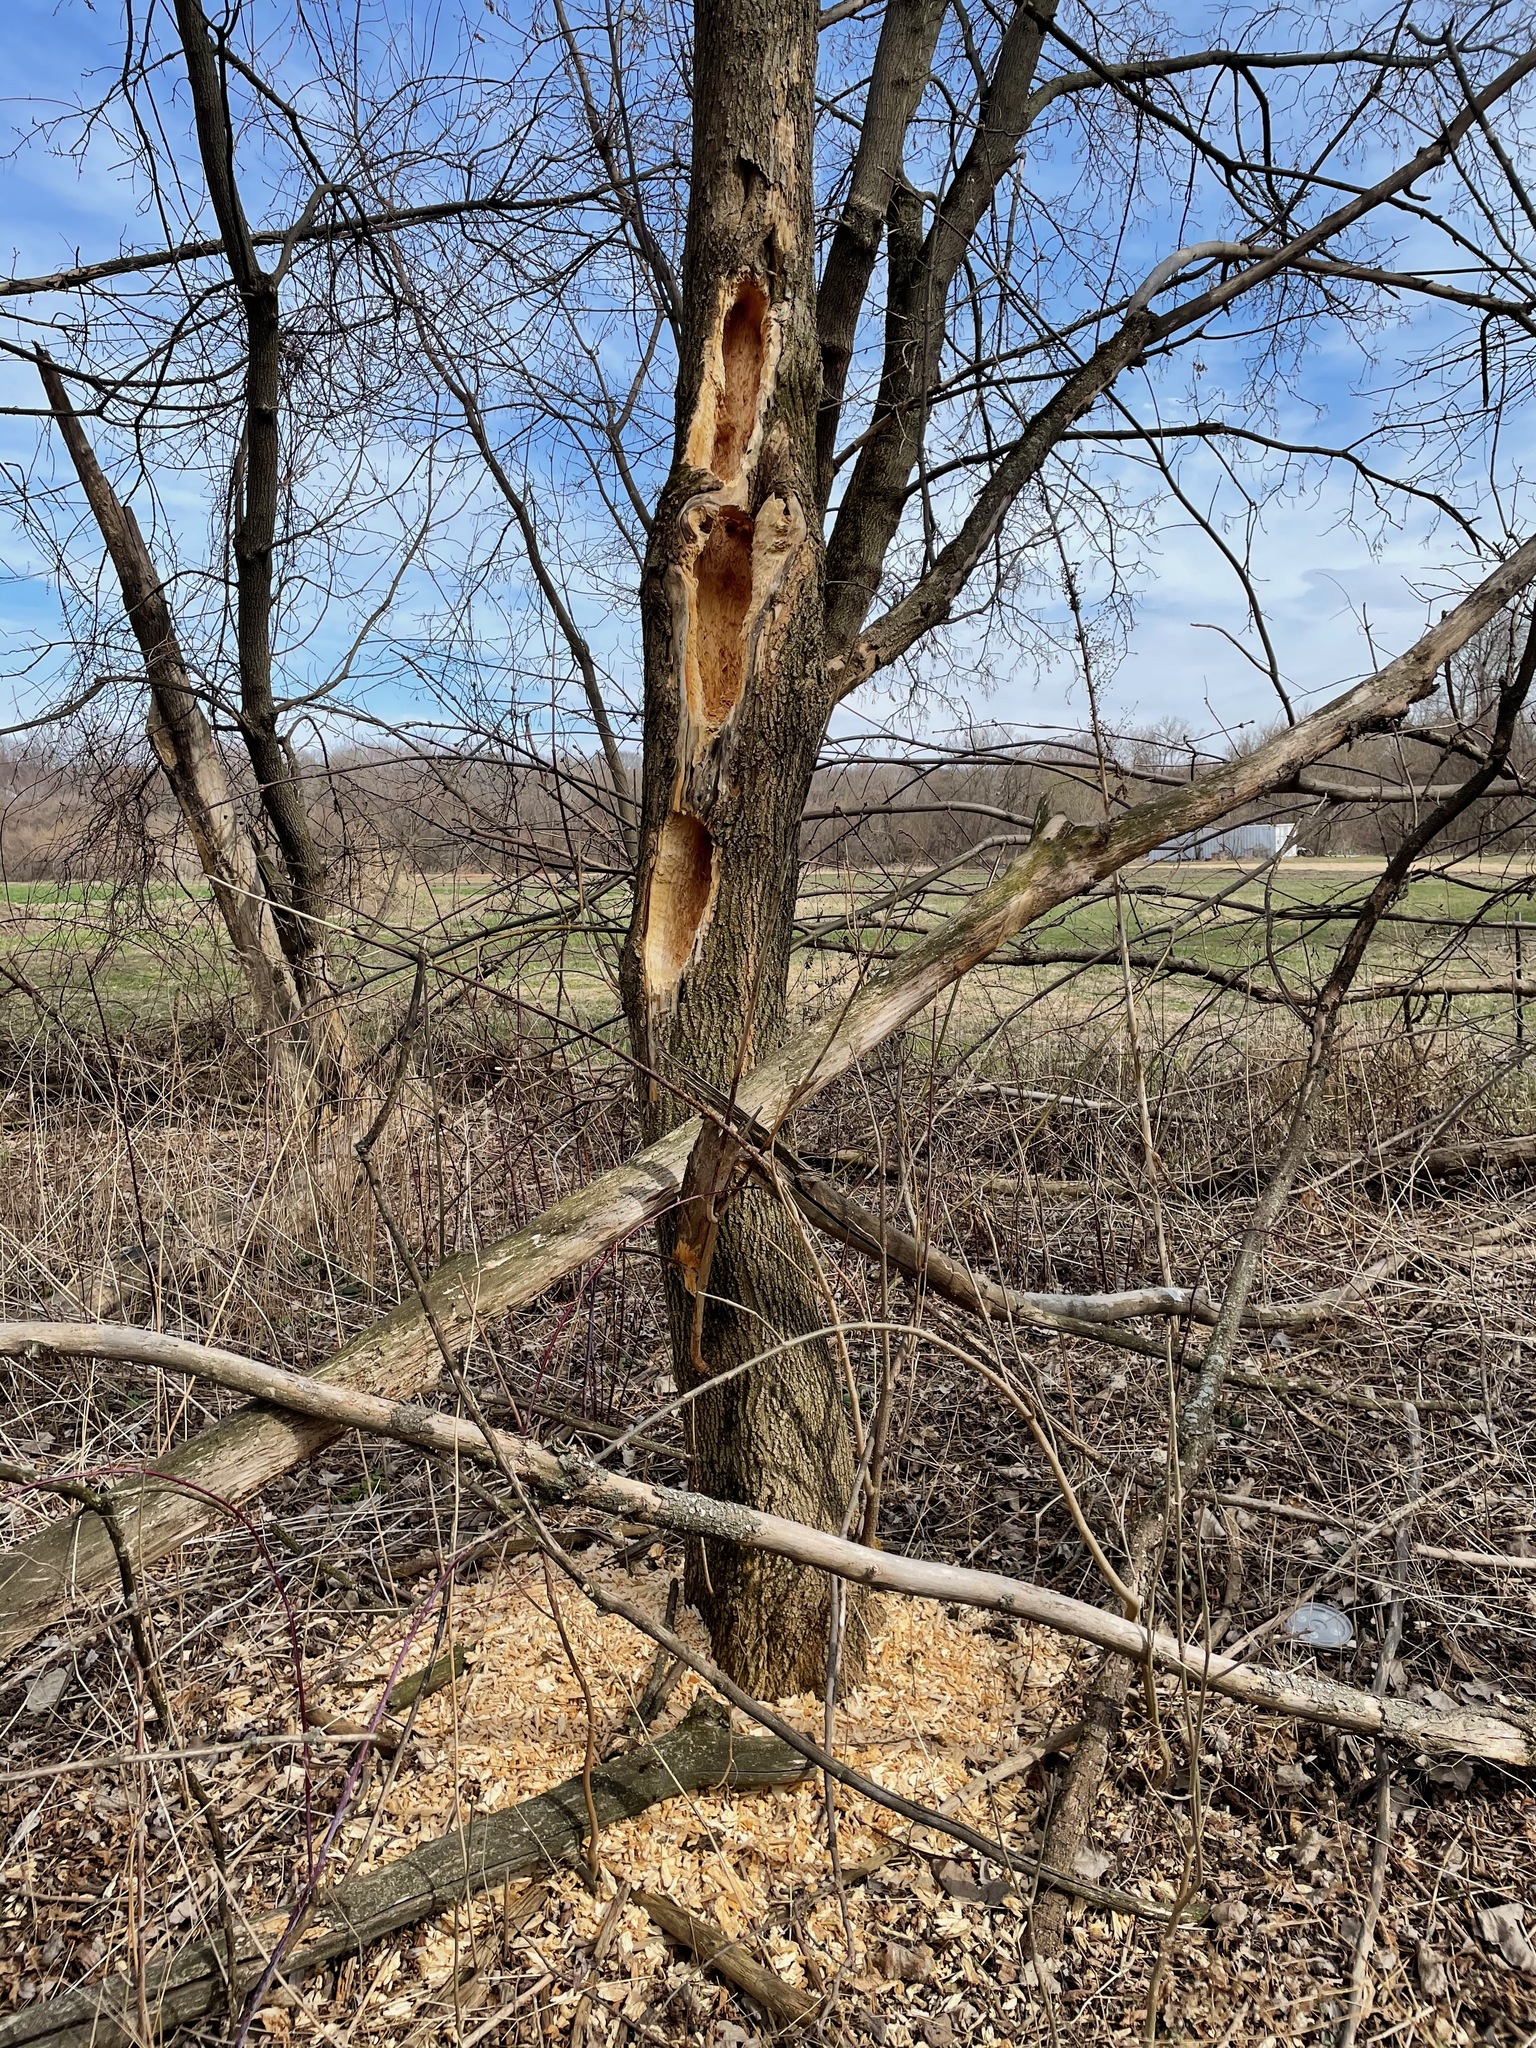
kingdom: Animalia
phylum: Chordata
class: Aves
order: Piciformes
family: Picidae
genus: Dryocopus
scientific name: Dryocopus pileatus
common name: Pileated woodpecker
